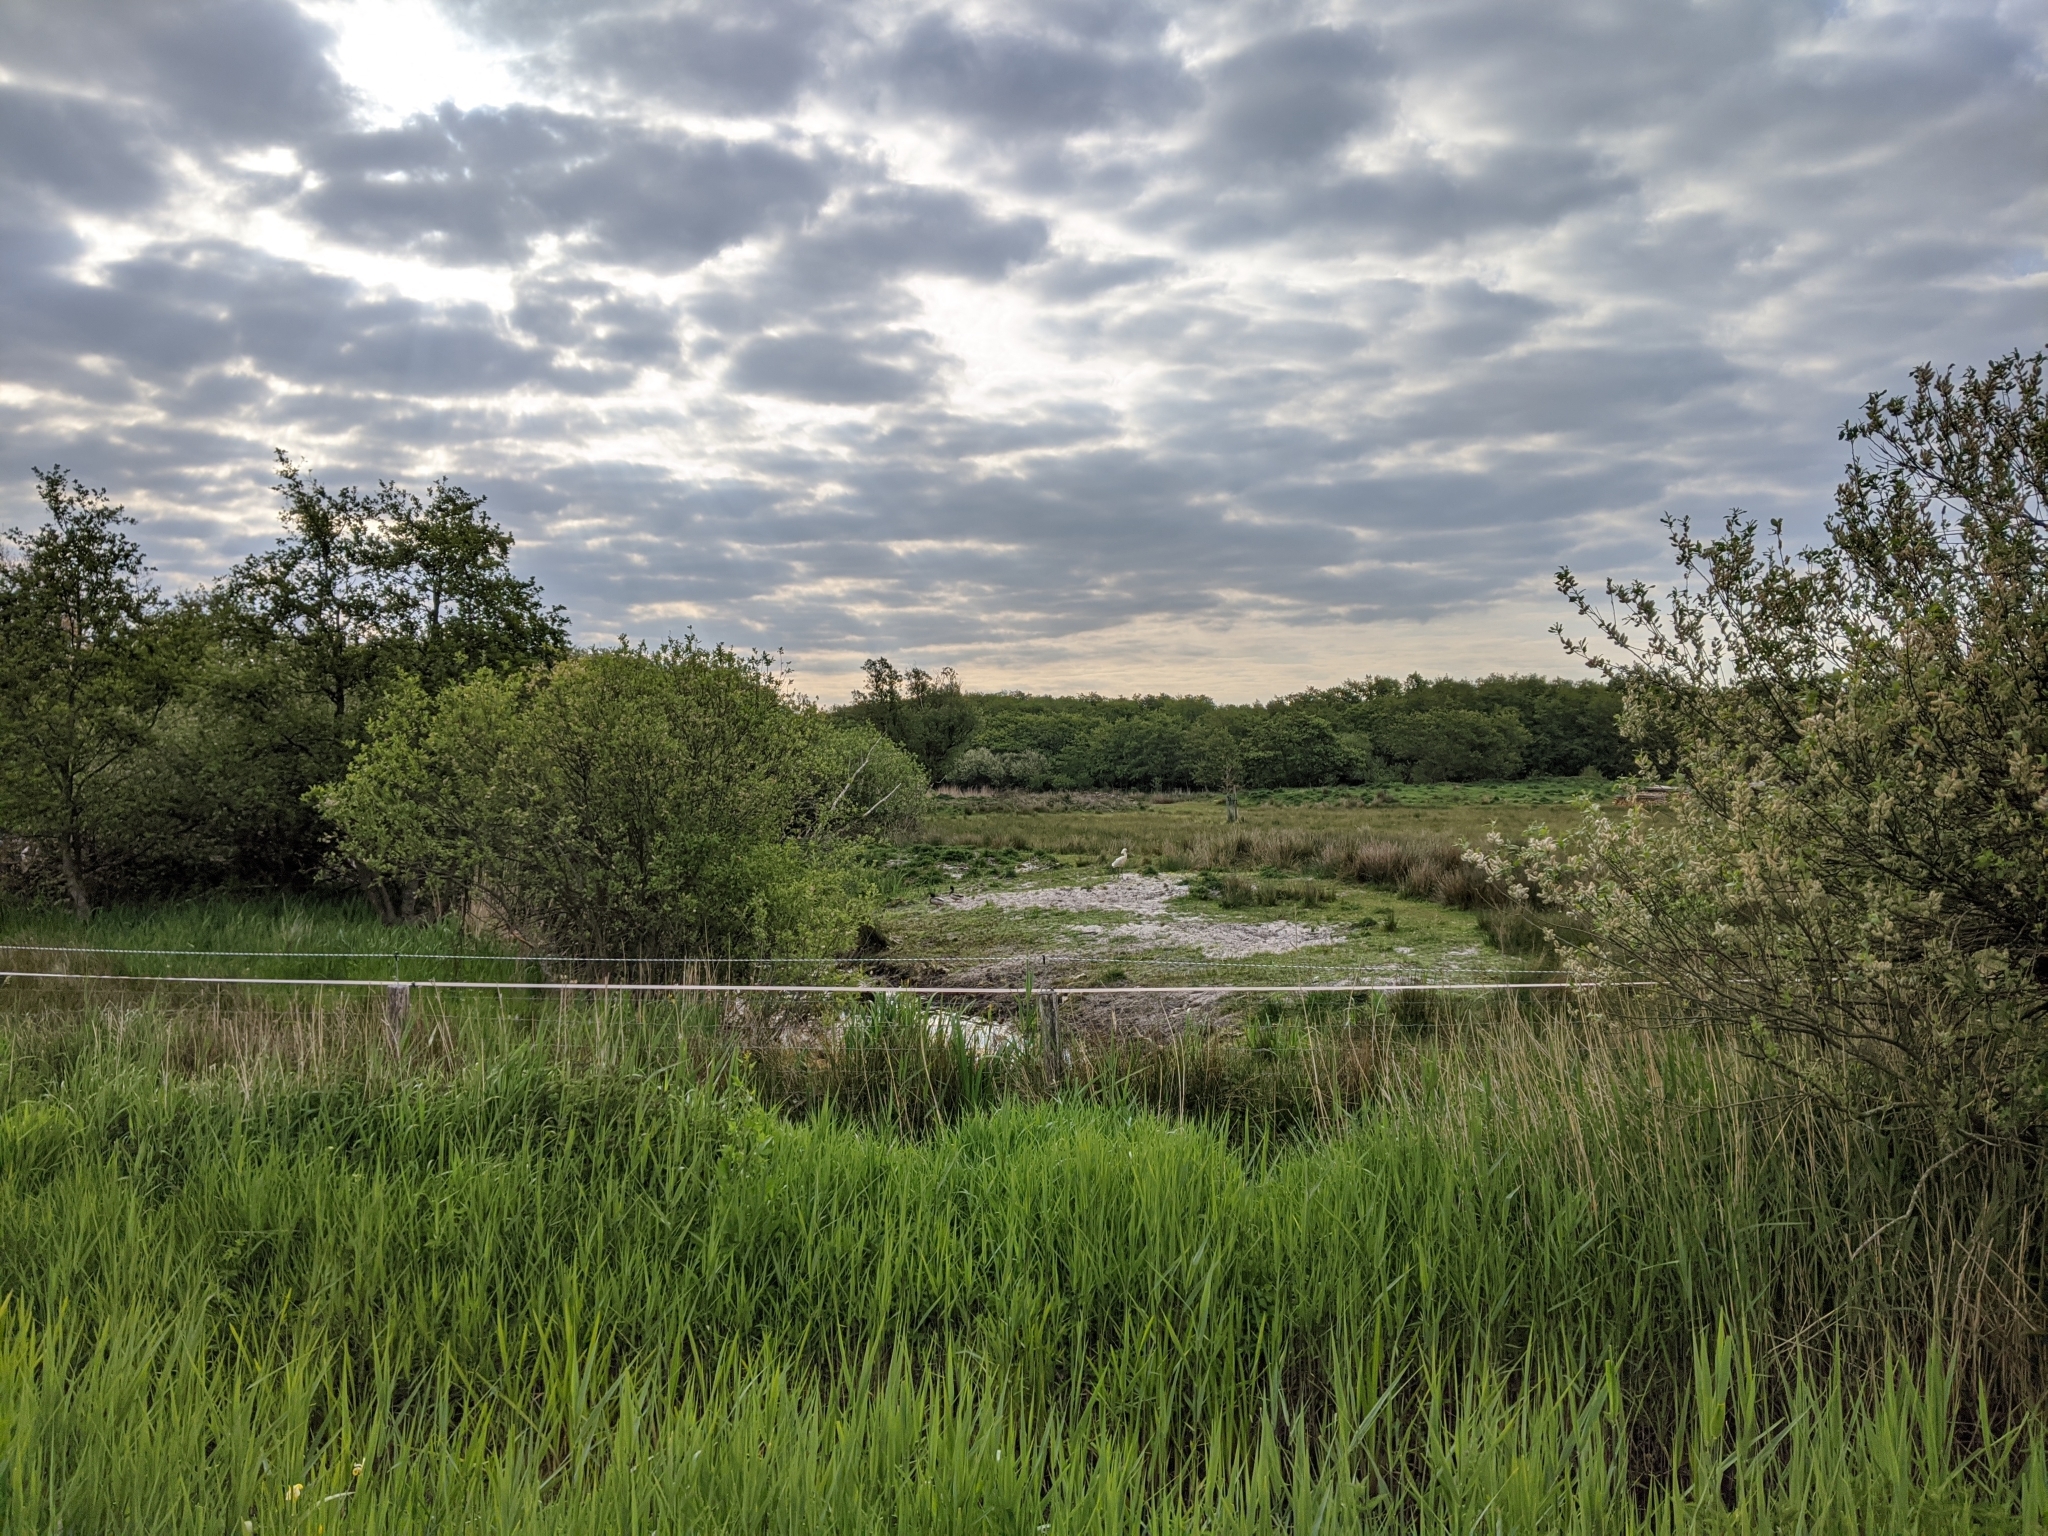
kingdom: Animalia
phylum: Chordata
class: Aves
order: Pelecaniformes
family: Threskiornithidae
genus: Platalea
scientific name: Platalea leucorodia
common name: Eurasian spoonbill
